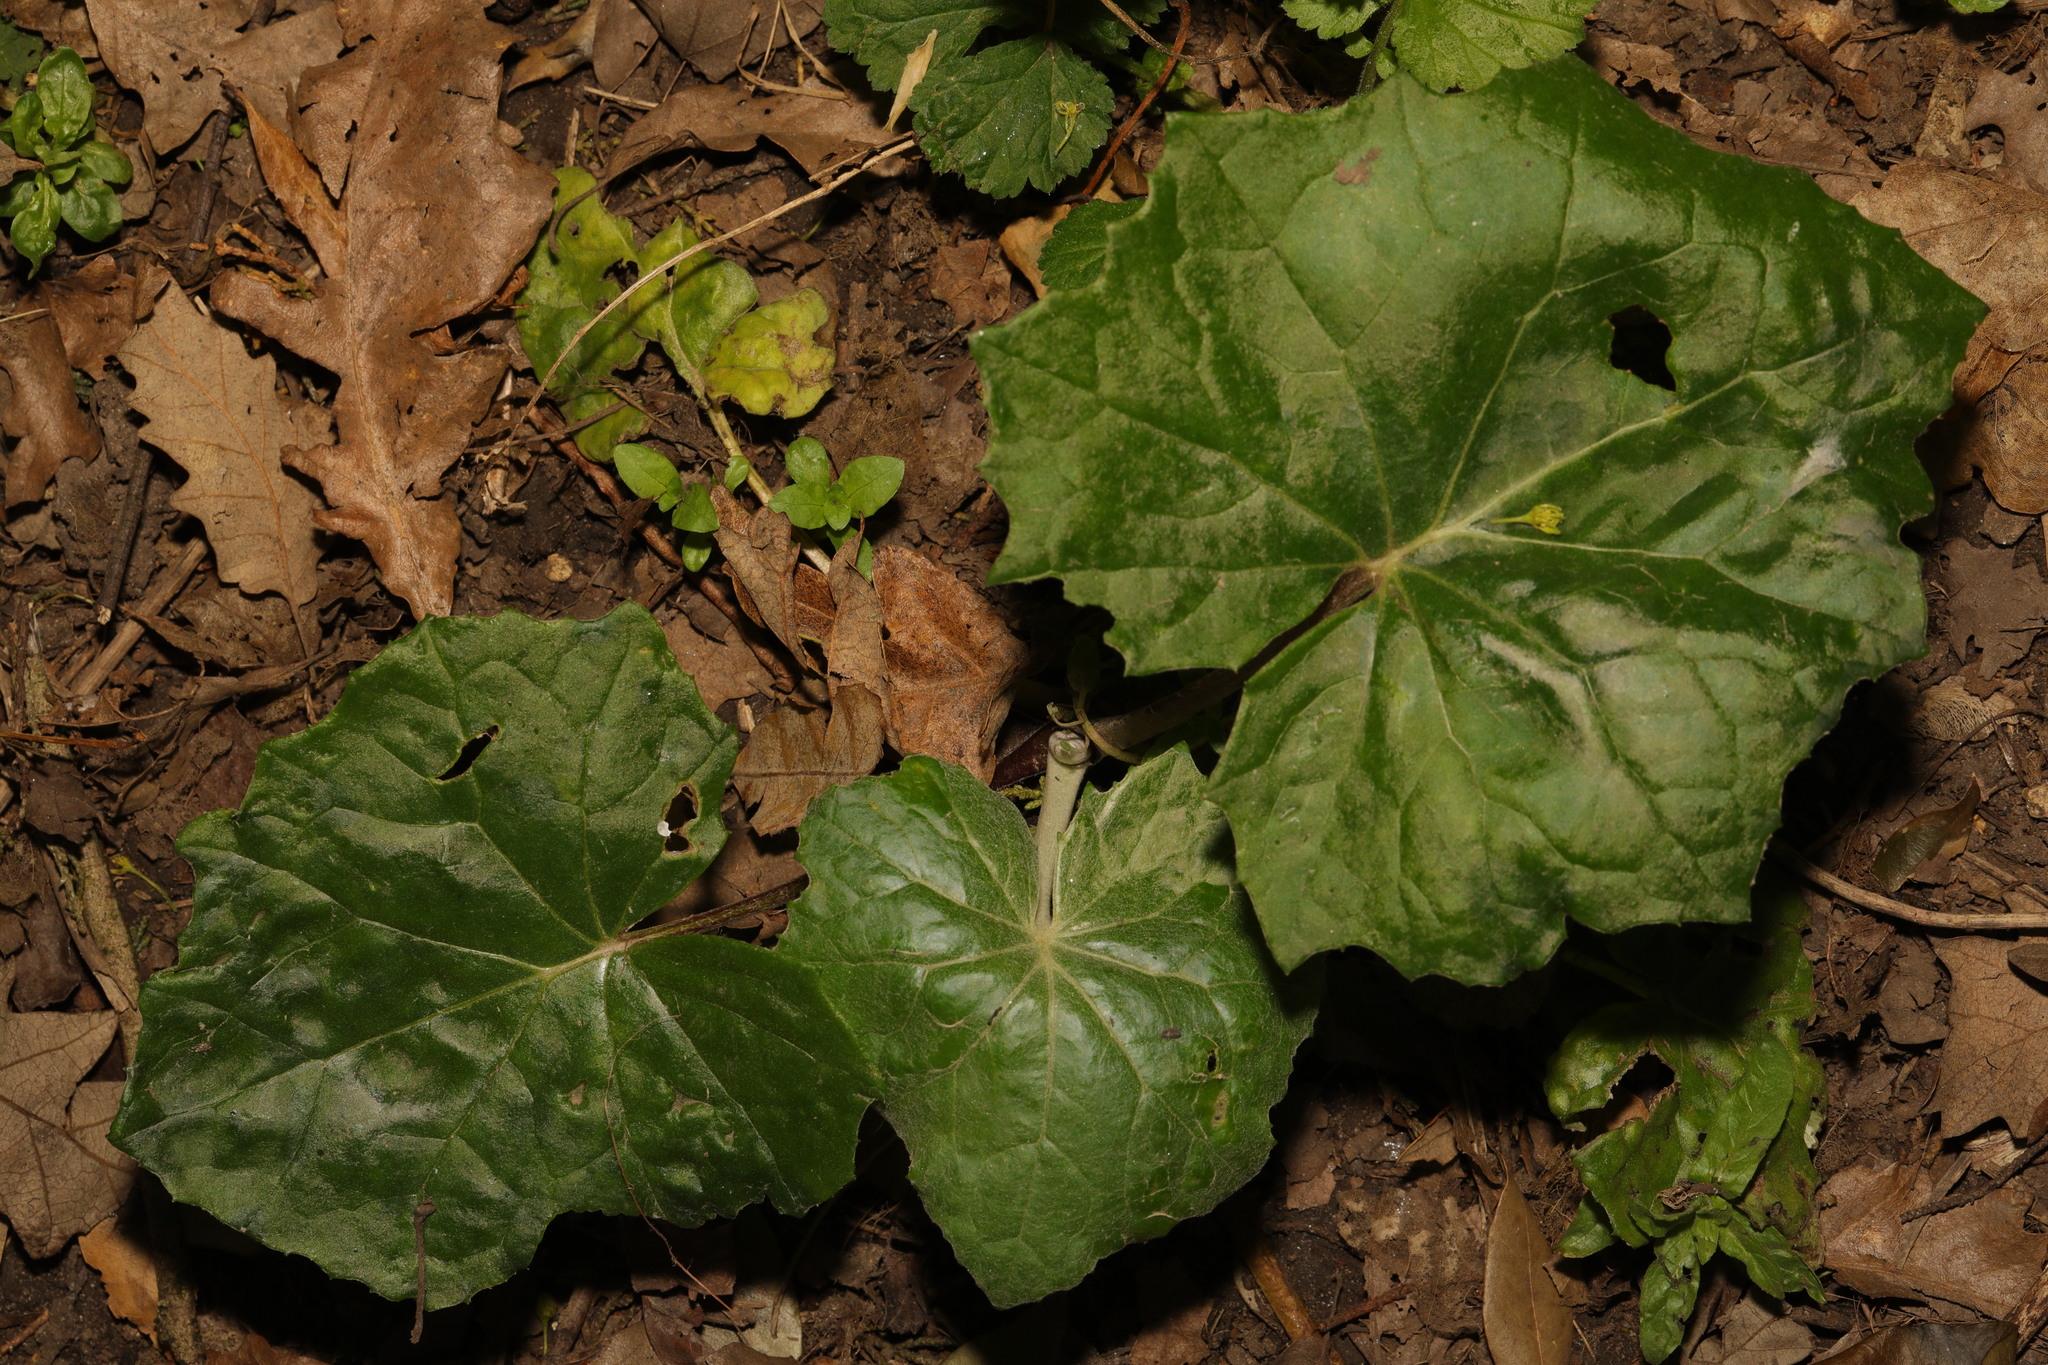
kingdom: Plantae
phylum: Tracheophyta
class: Magnoliopsida
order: Asterales
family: Asteraceae
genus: Tussilago
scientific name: Tussilago farfara
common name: Coltsfoot
